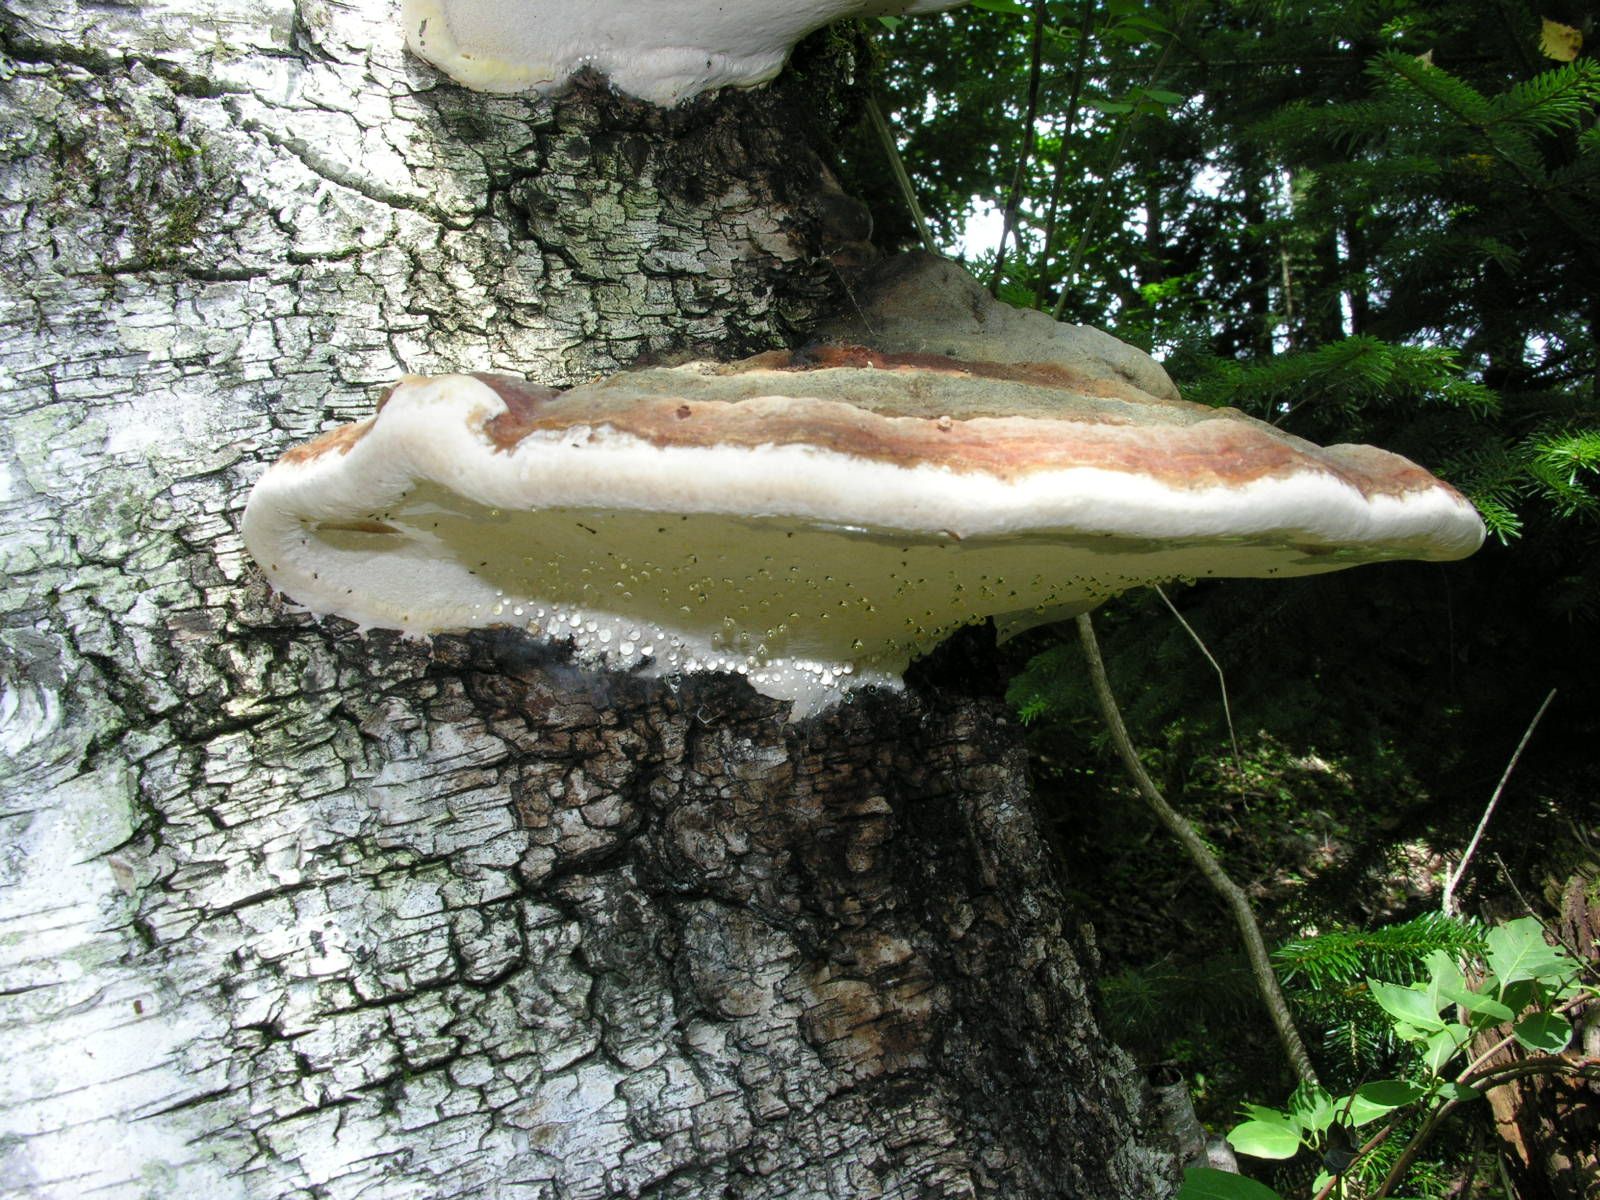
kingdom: Fungi
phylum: Basidiomycota
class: Agaricomycetes
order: Polyporales
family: Fomitopsidaceae
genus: Fomitopsis
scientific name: Fomitopsis pinicola
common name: Red-belted bracket
